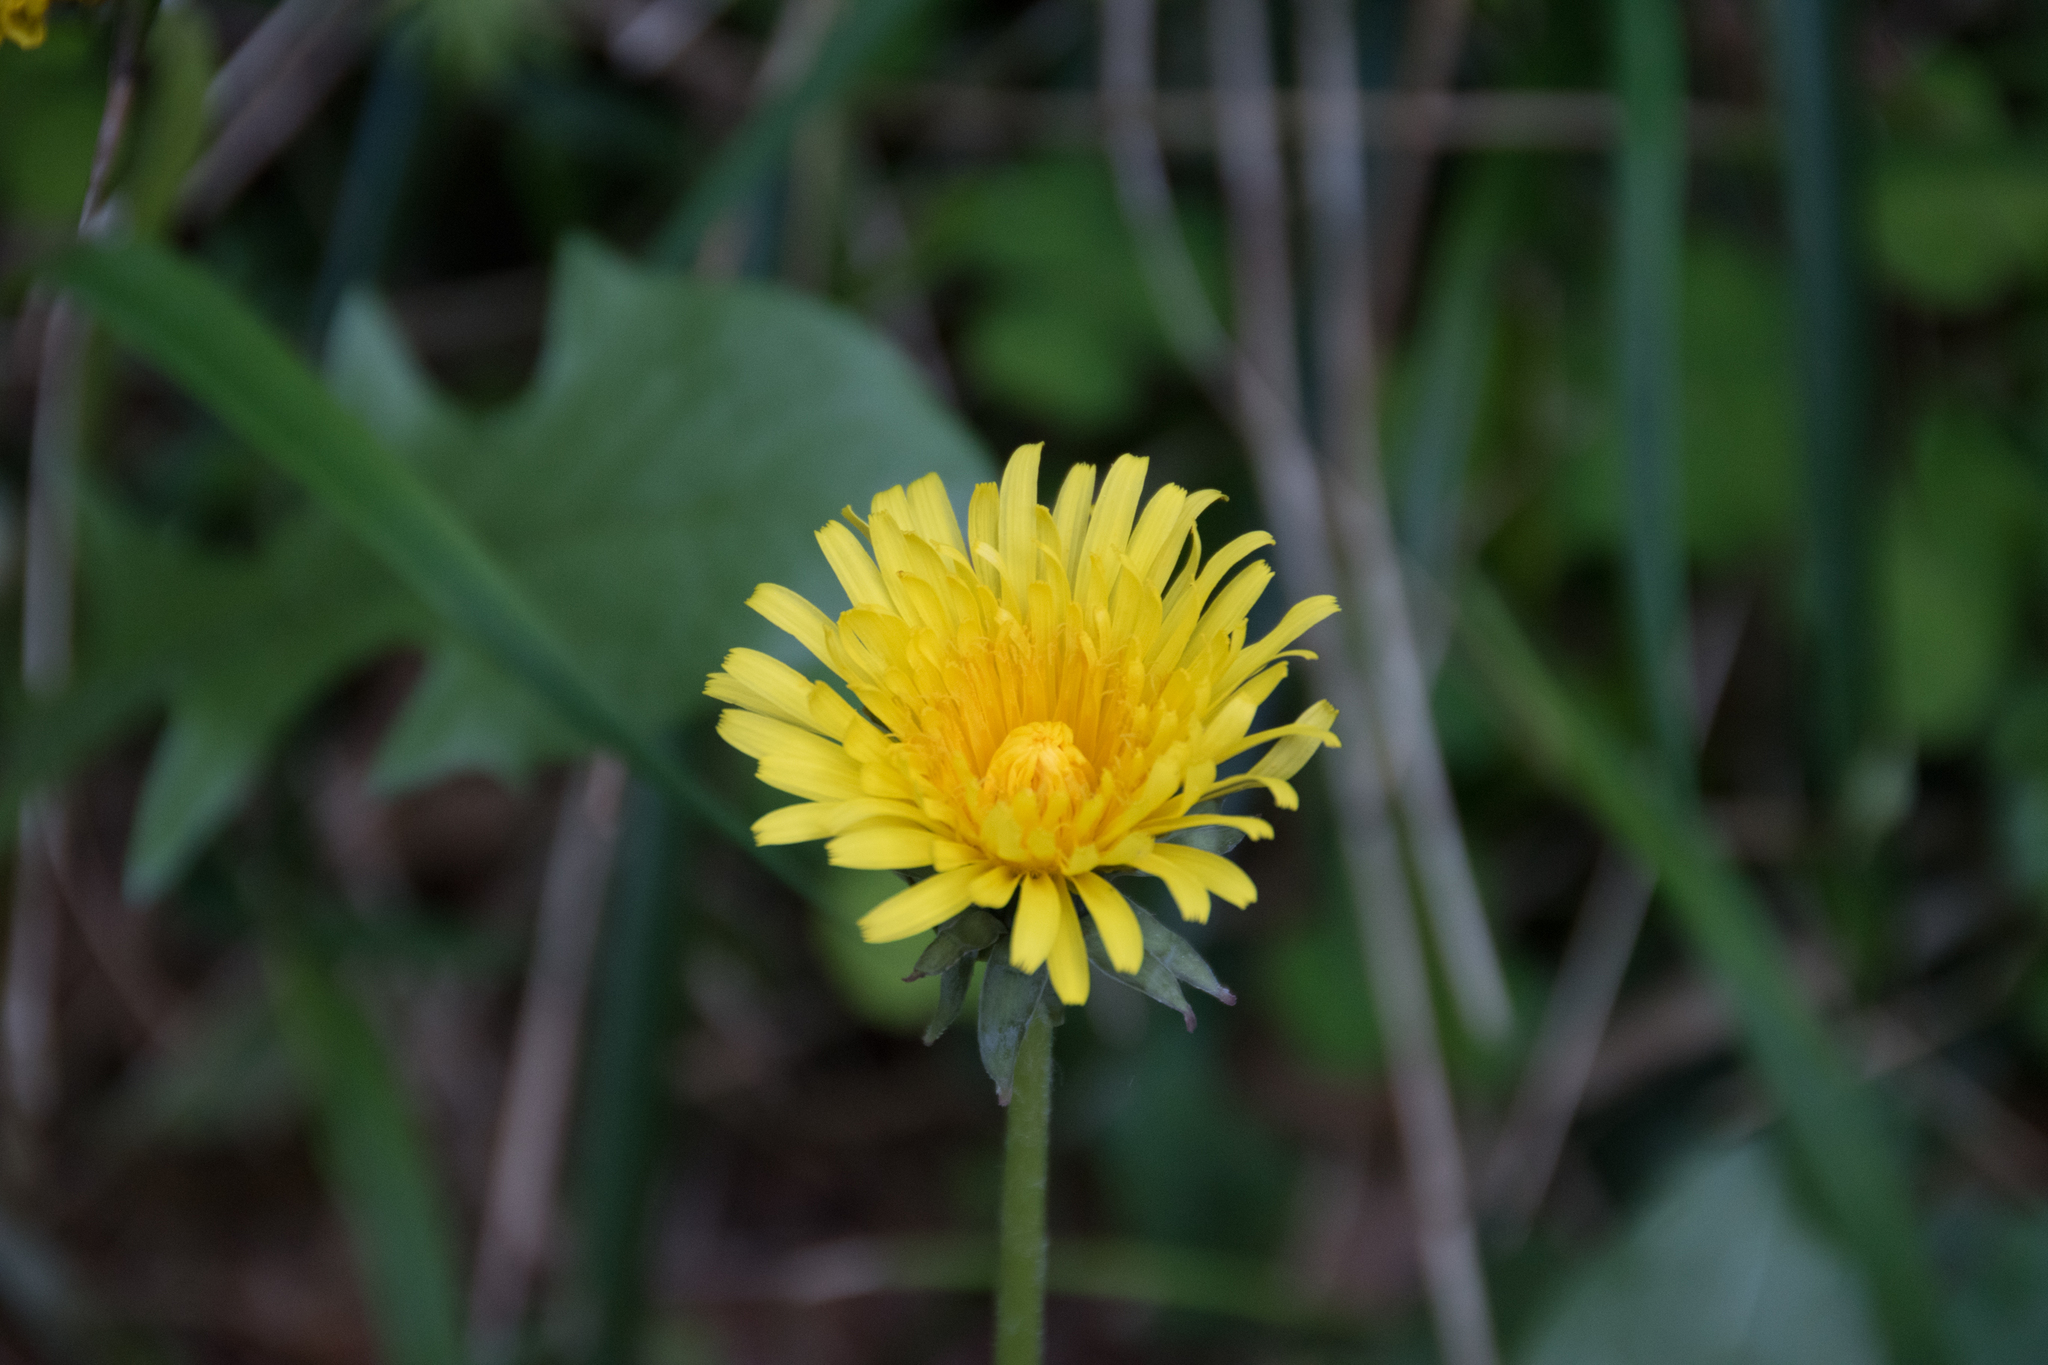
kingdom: Plantae
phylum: Tracheophyta
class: Magnoliopsida
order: Asterales
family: Asteraceae
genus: Taraxacum
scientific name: Taraxacum officinale
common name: Common dandelion
